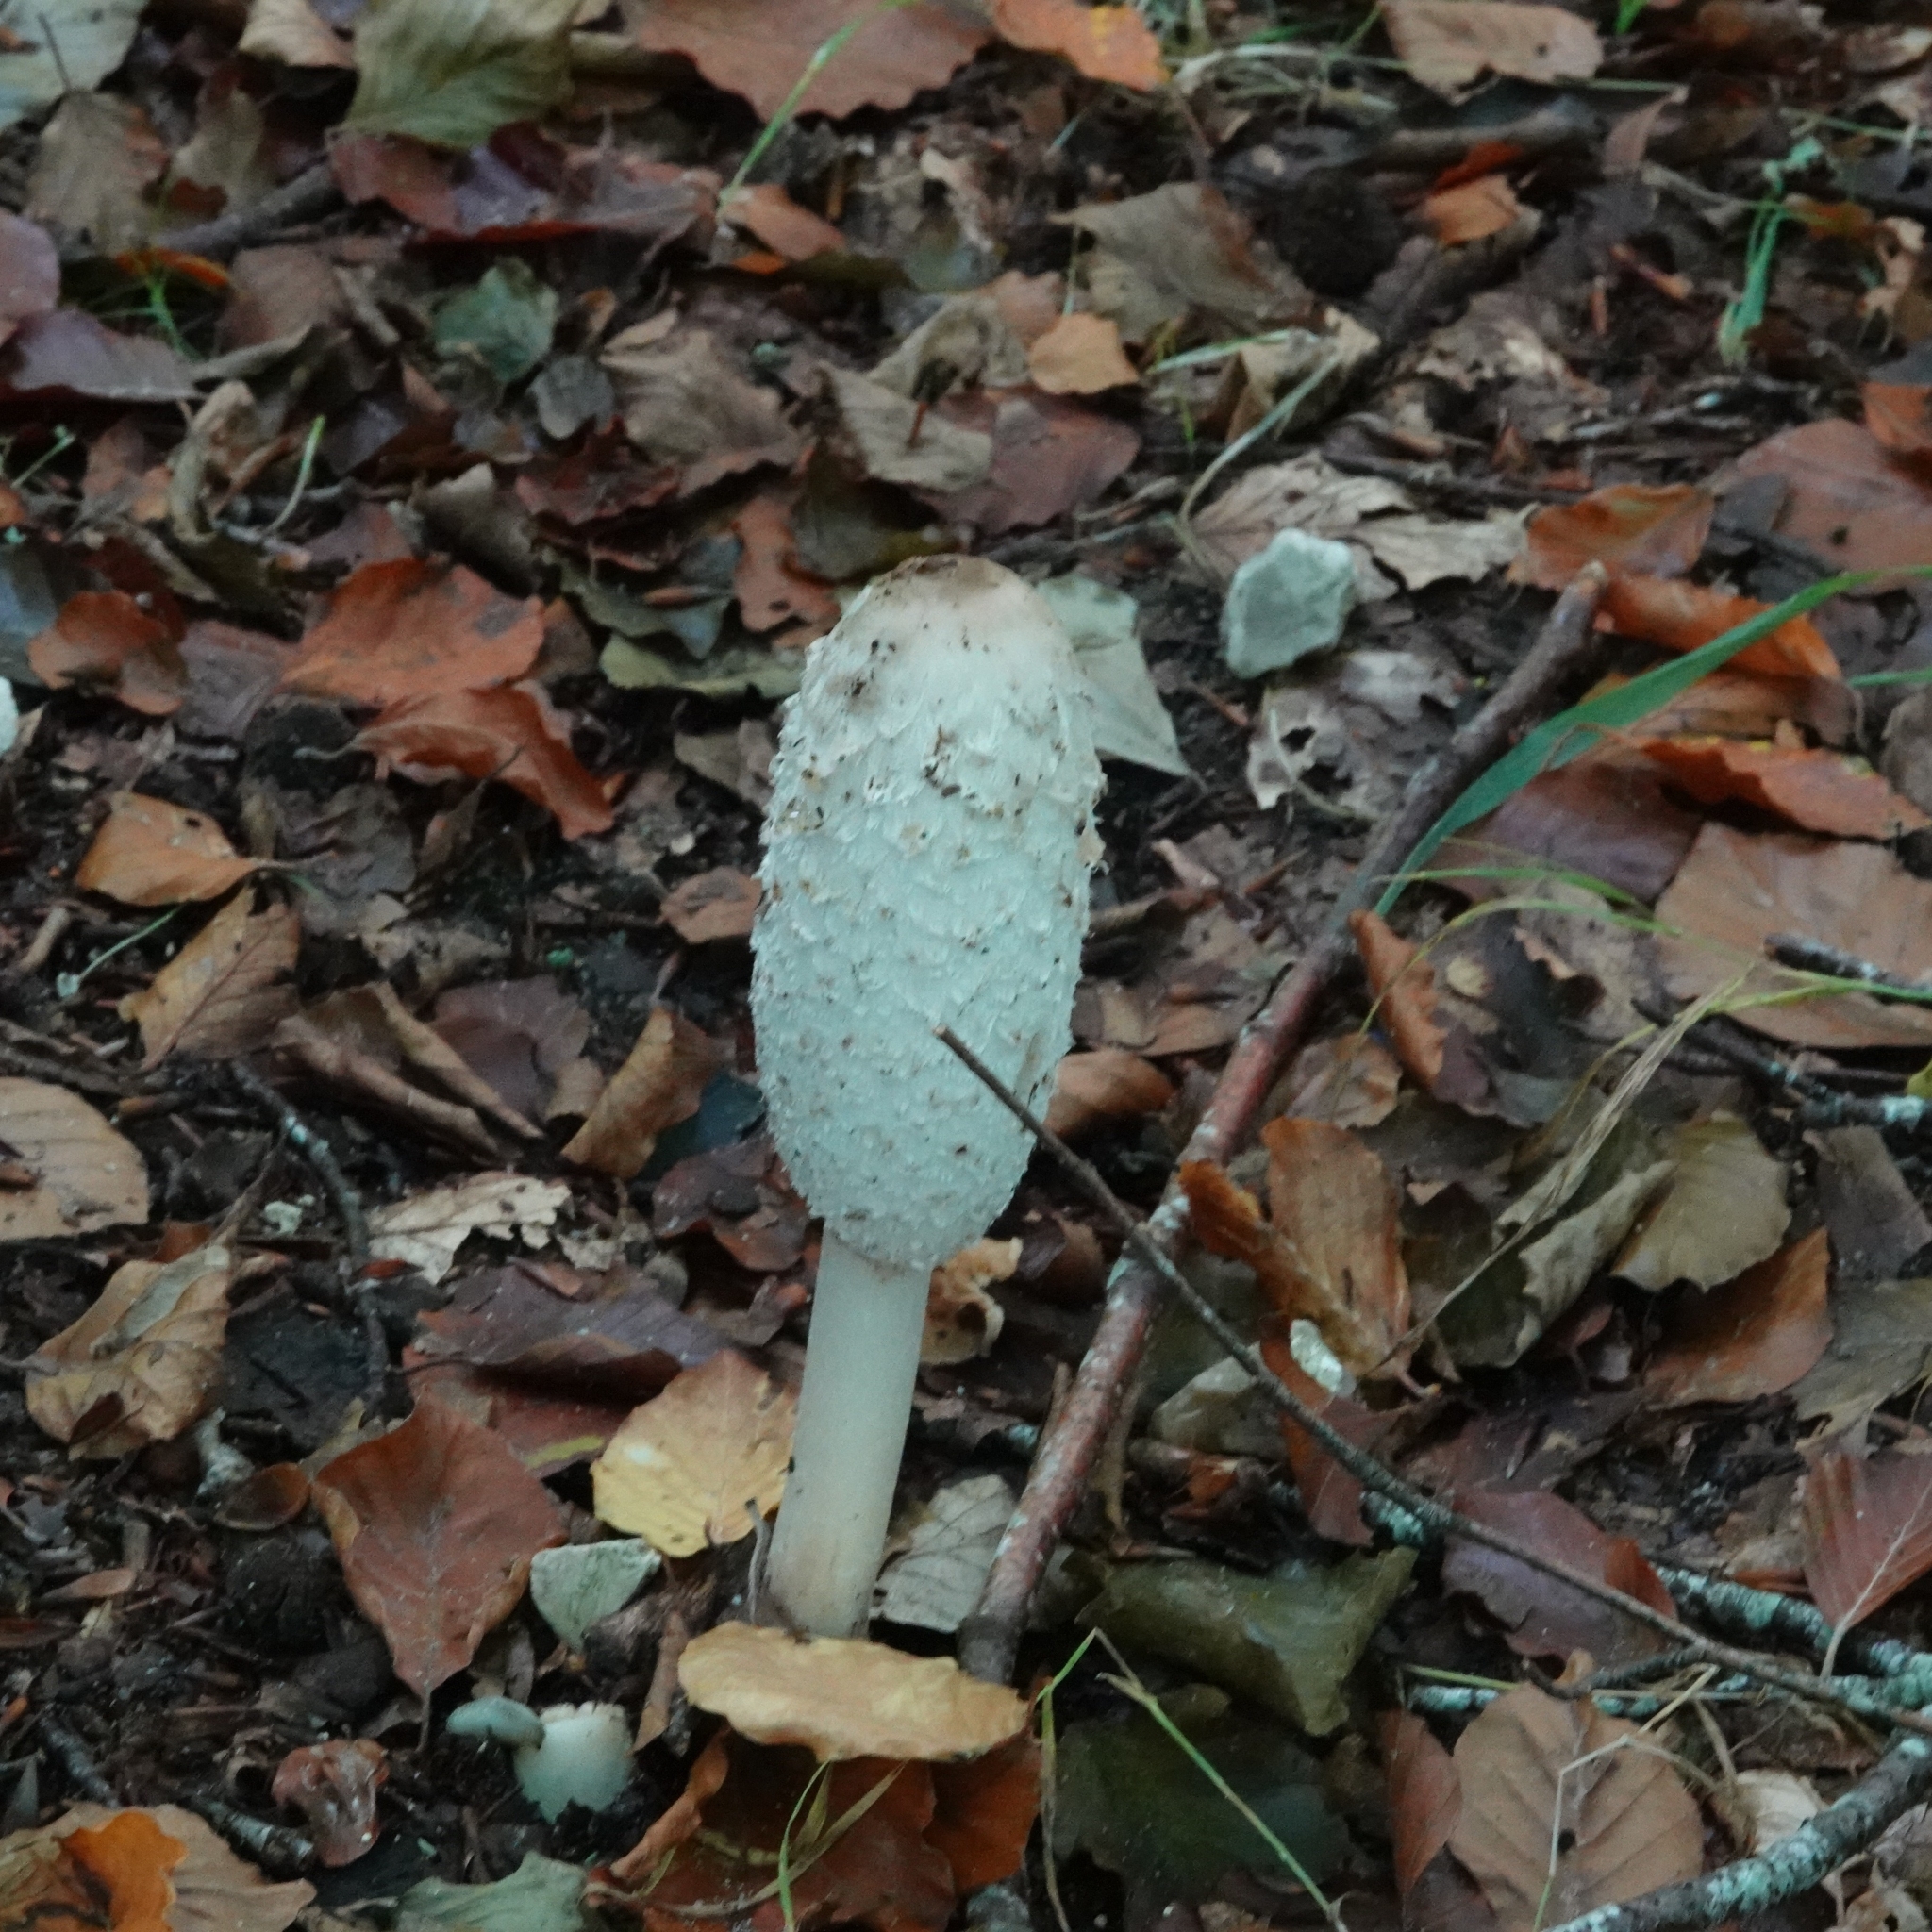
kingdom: Fungi
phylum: Basidiomycota
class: Agaricomycetes
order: Agaricales
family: Agaricaceae
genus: Coprinus
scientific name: Coprinus comatus
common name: Lawyer's wig
